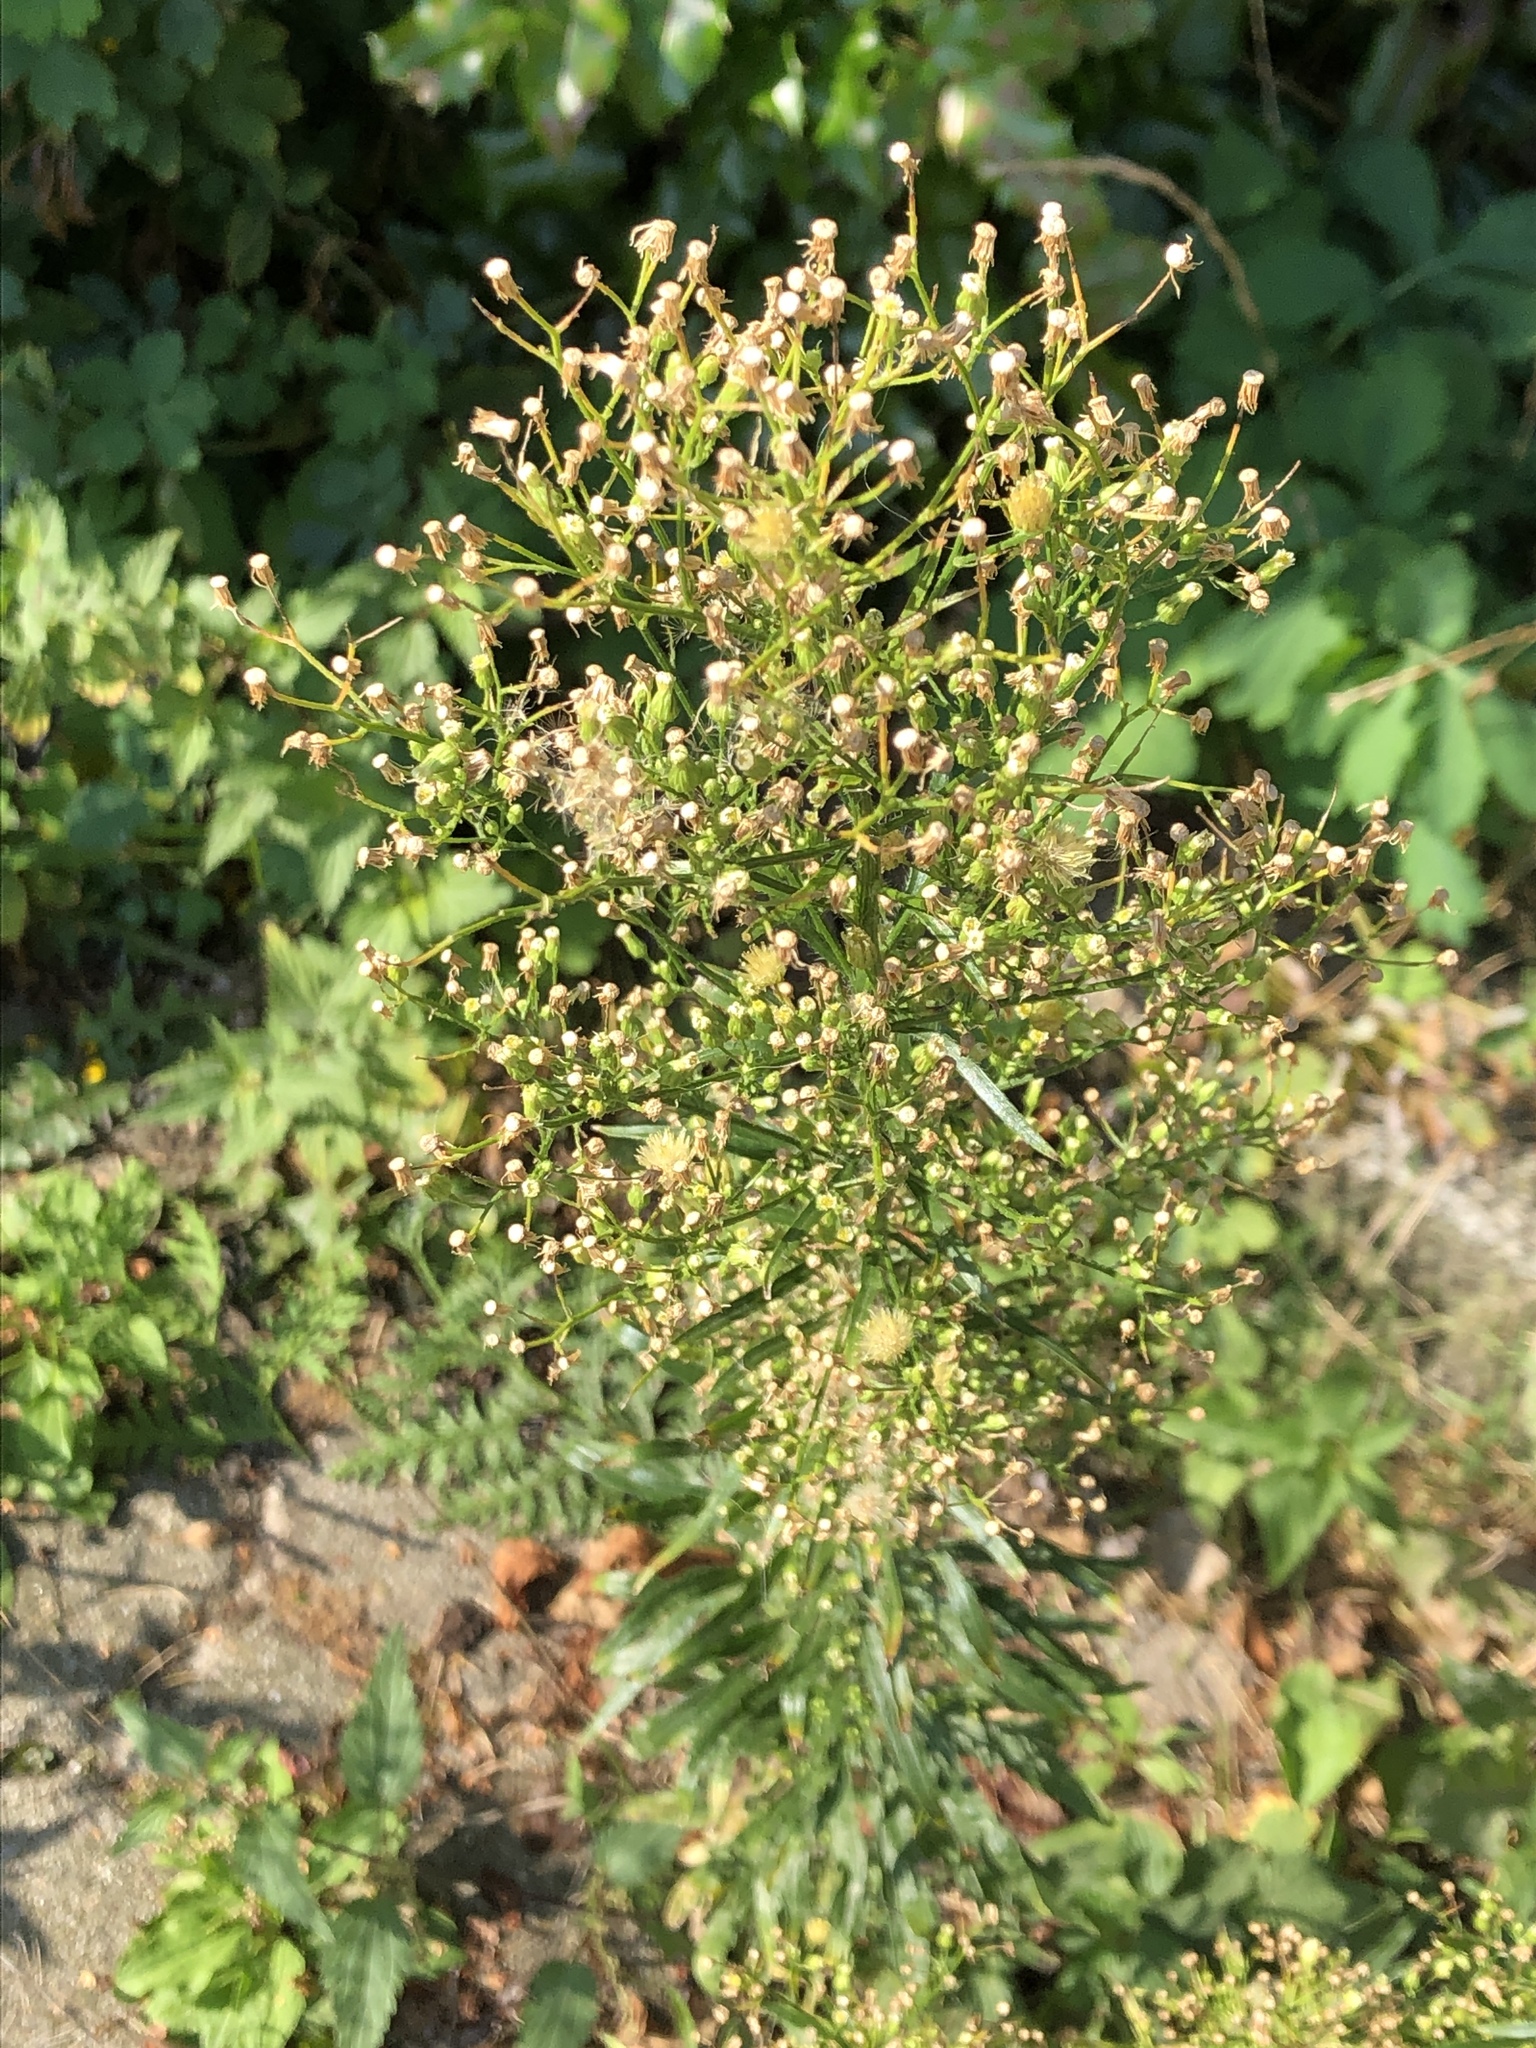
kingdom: Plantae
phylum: Tracheophyta
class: Magnoliopsida
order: Asterales
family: Asteraceae
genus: Erigeron
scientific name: Erigeron canadensis
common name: Canadian fleabane
